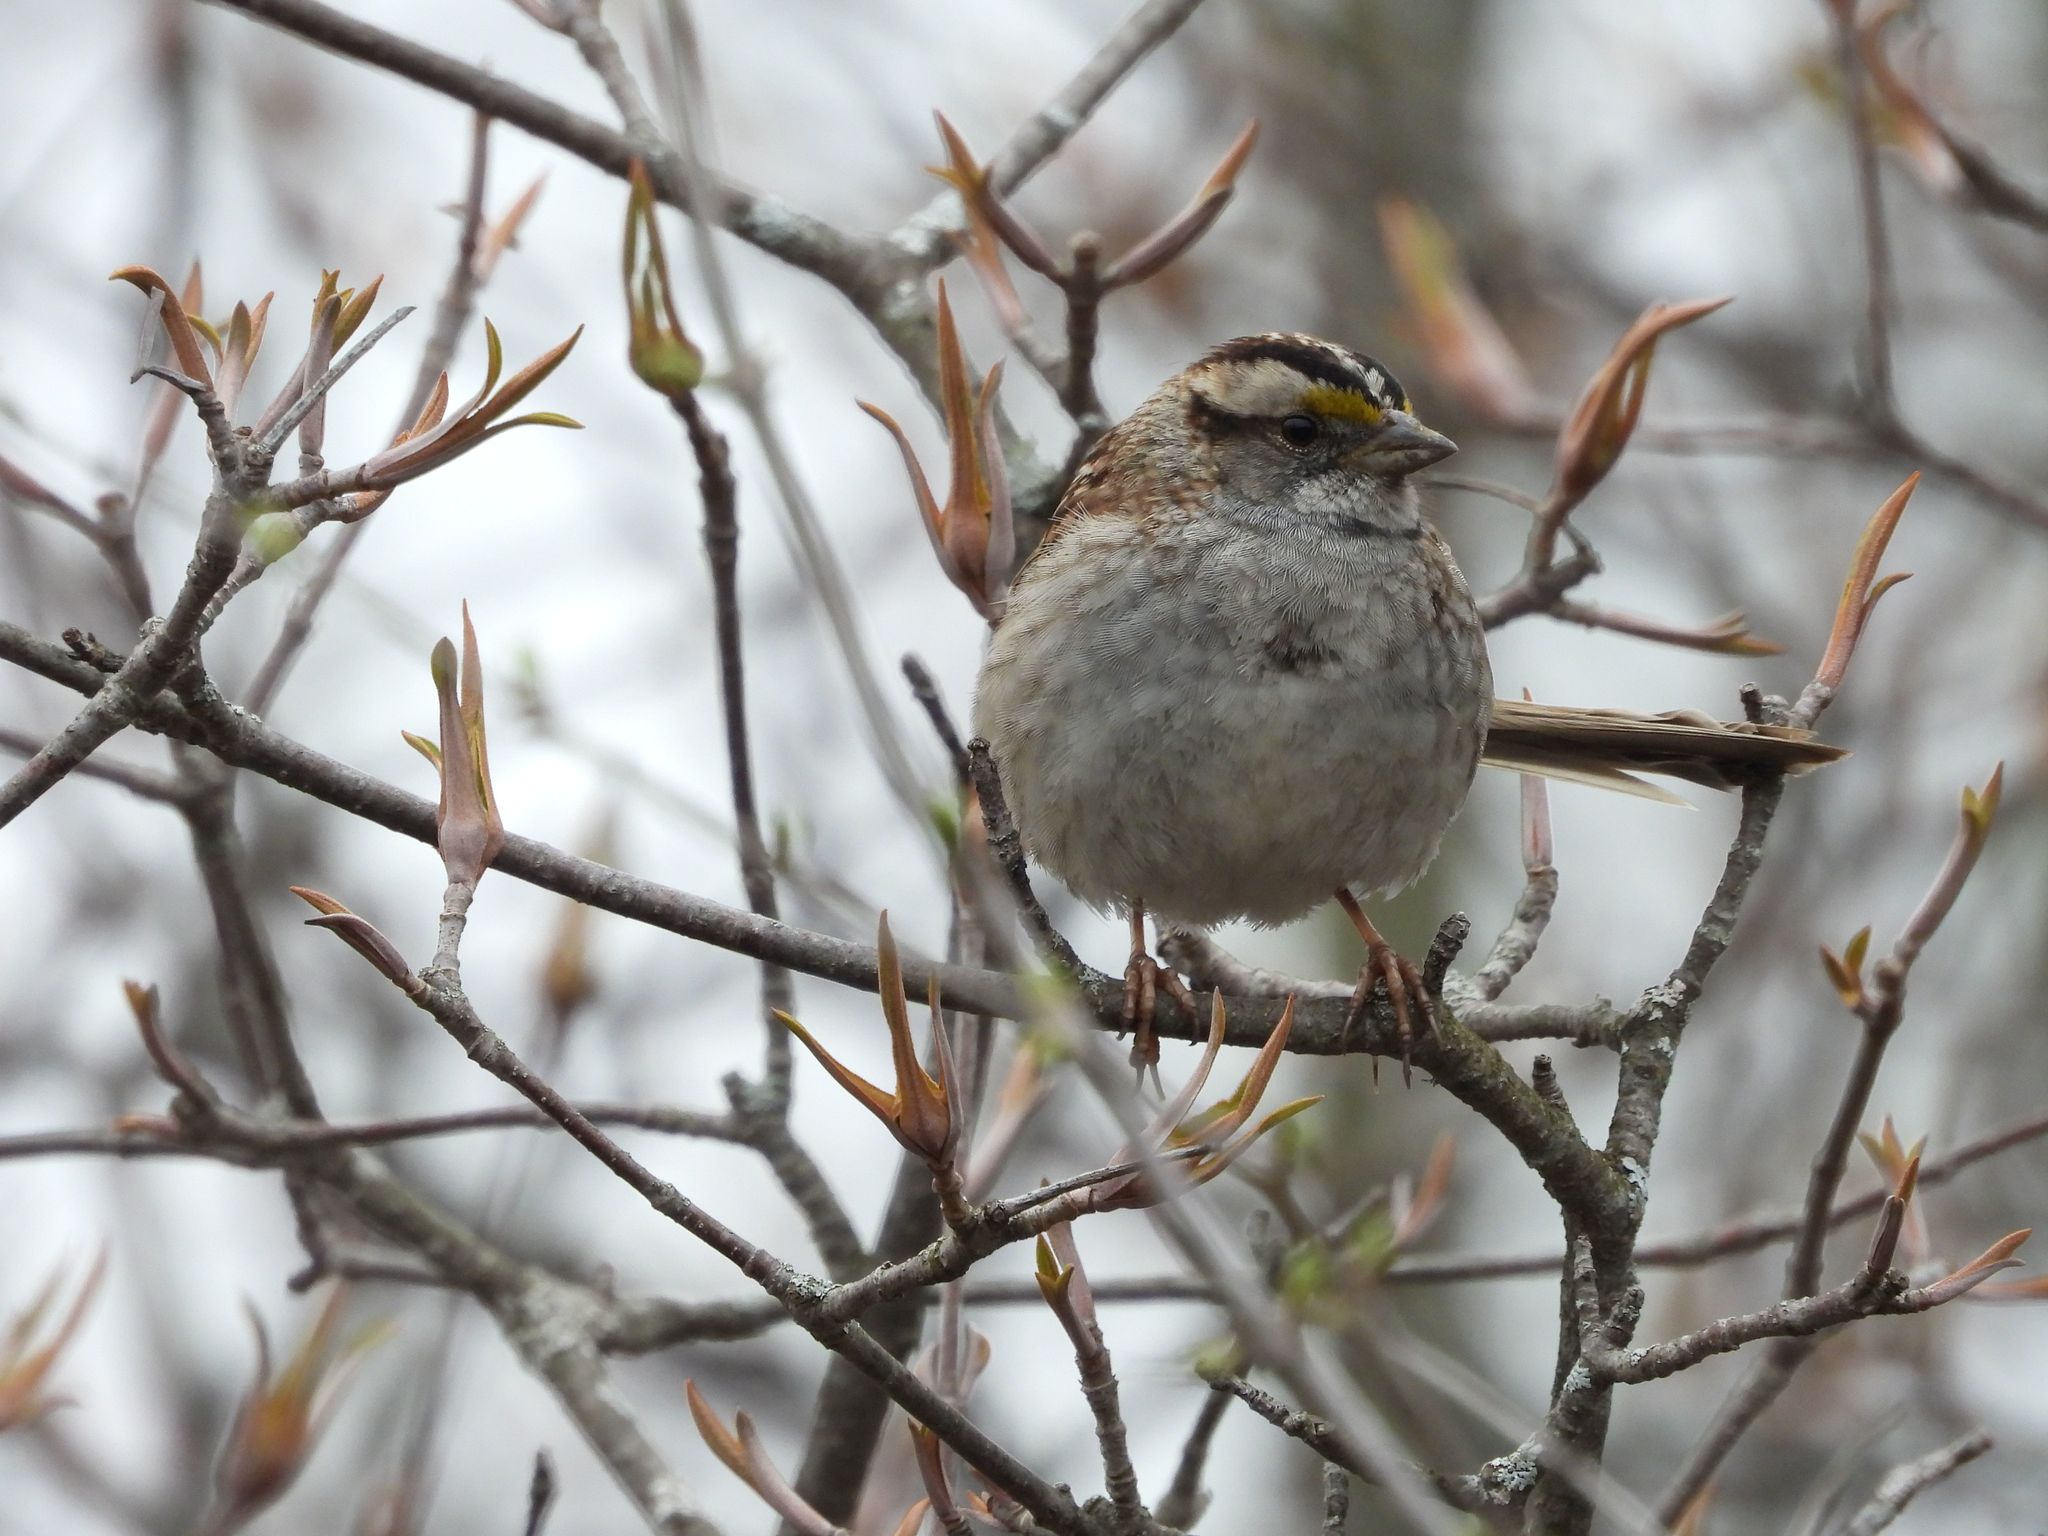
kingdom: Animalia
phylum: Chordata
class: Aves
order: Passeriformes
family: Passerellidae
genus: Zonotrichia
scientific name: Zonotrichia albicollis
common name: White-throated sparrow
